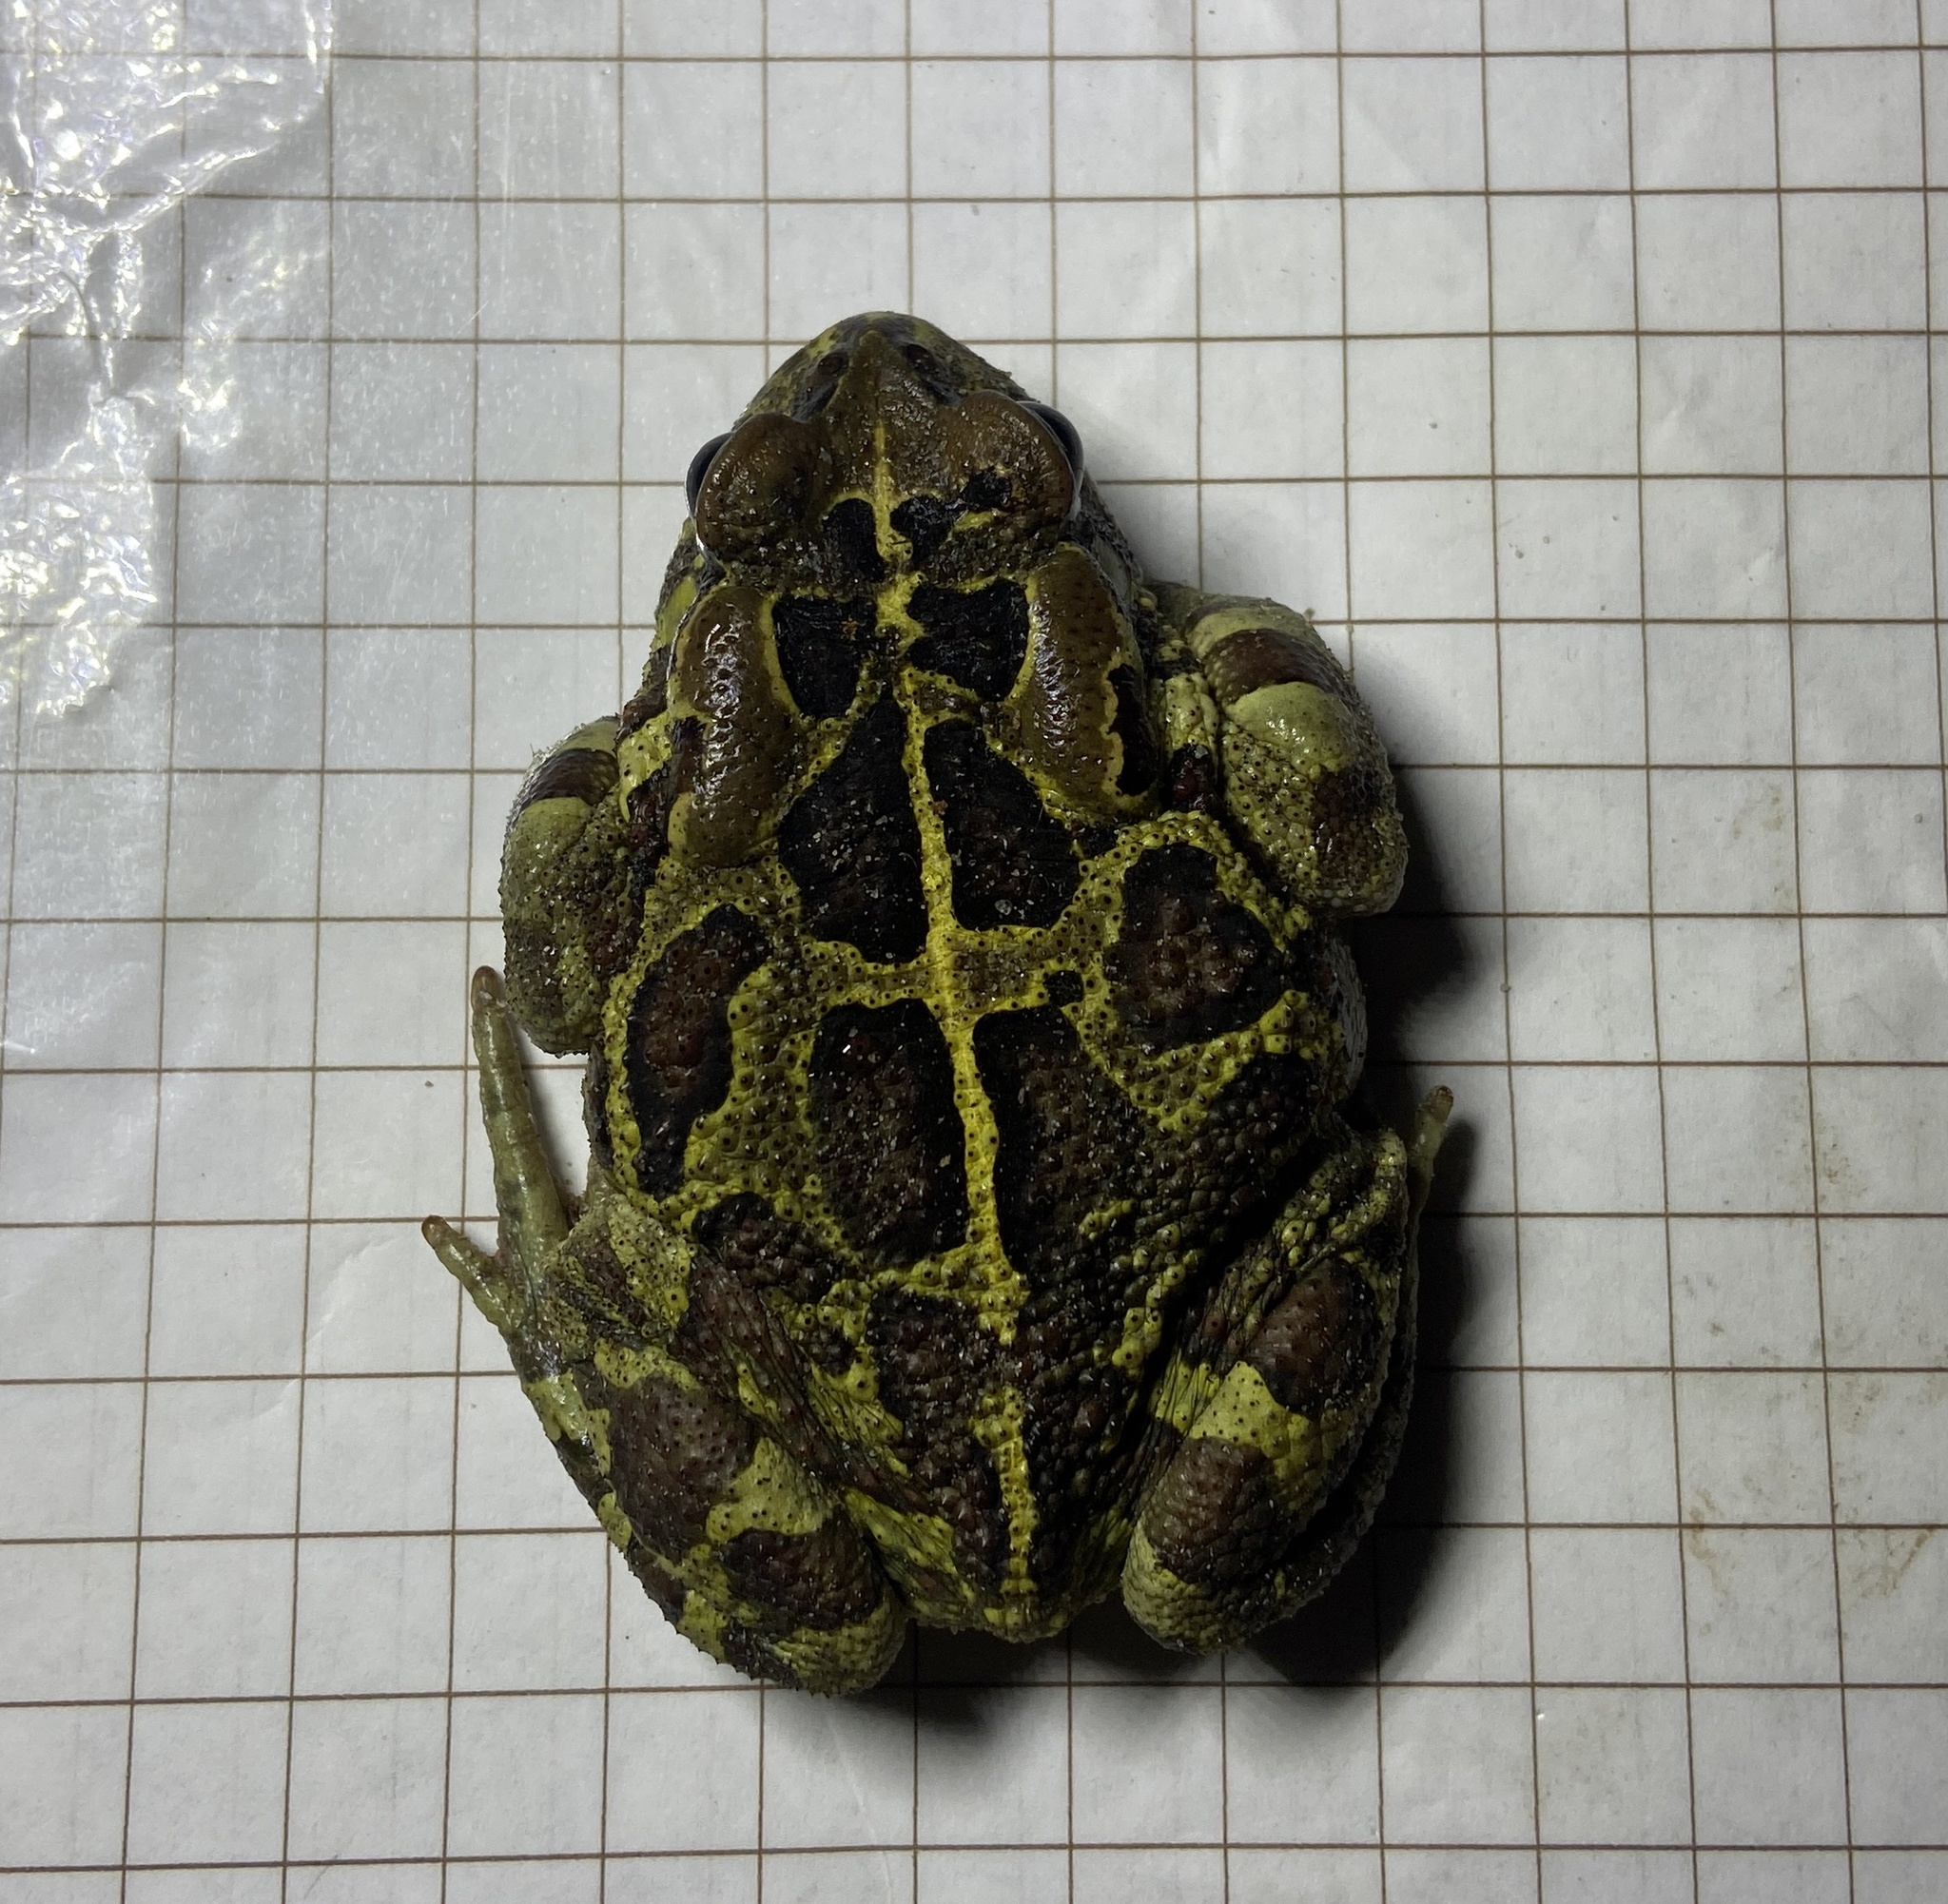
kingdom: Animalia
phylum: Chordata
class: Amphibia
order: Anura
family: Bufonidae
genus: Sclerophrys
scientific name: Sclerophrys pantherina
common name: Panther toad
